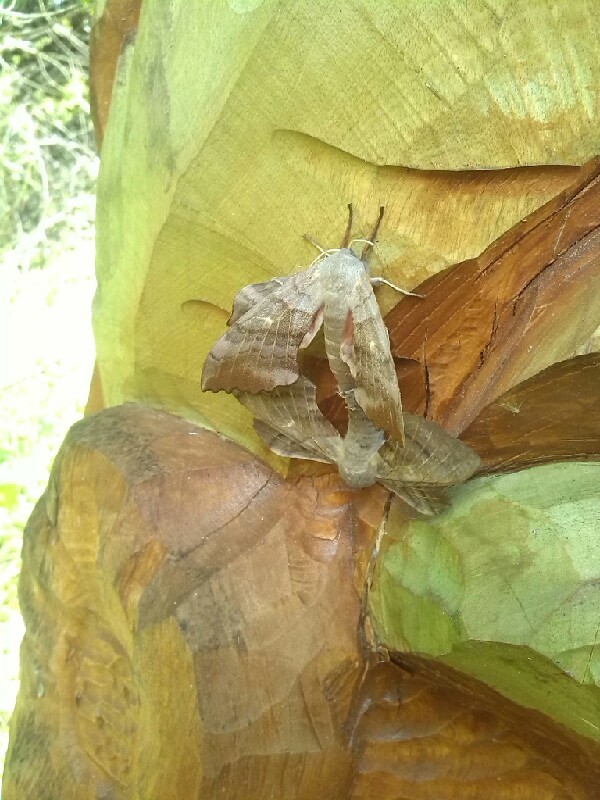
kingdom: Animalia
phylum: Arthropoda
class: Insecta
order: Lepidoptera
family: Sphingidae
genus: Laothoe
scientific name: Laothoe populi
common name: Poplar hawk-moth
